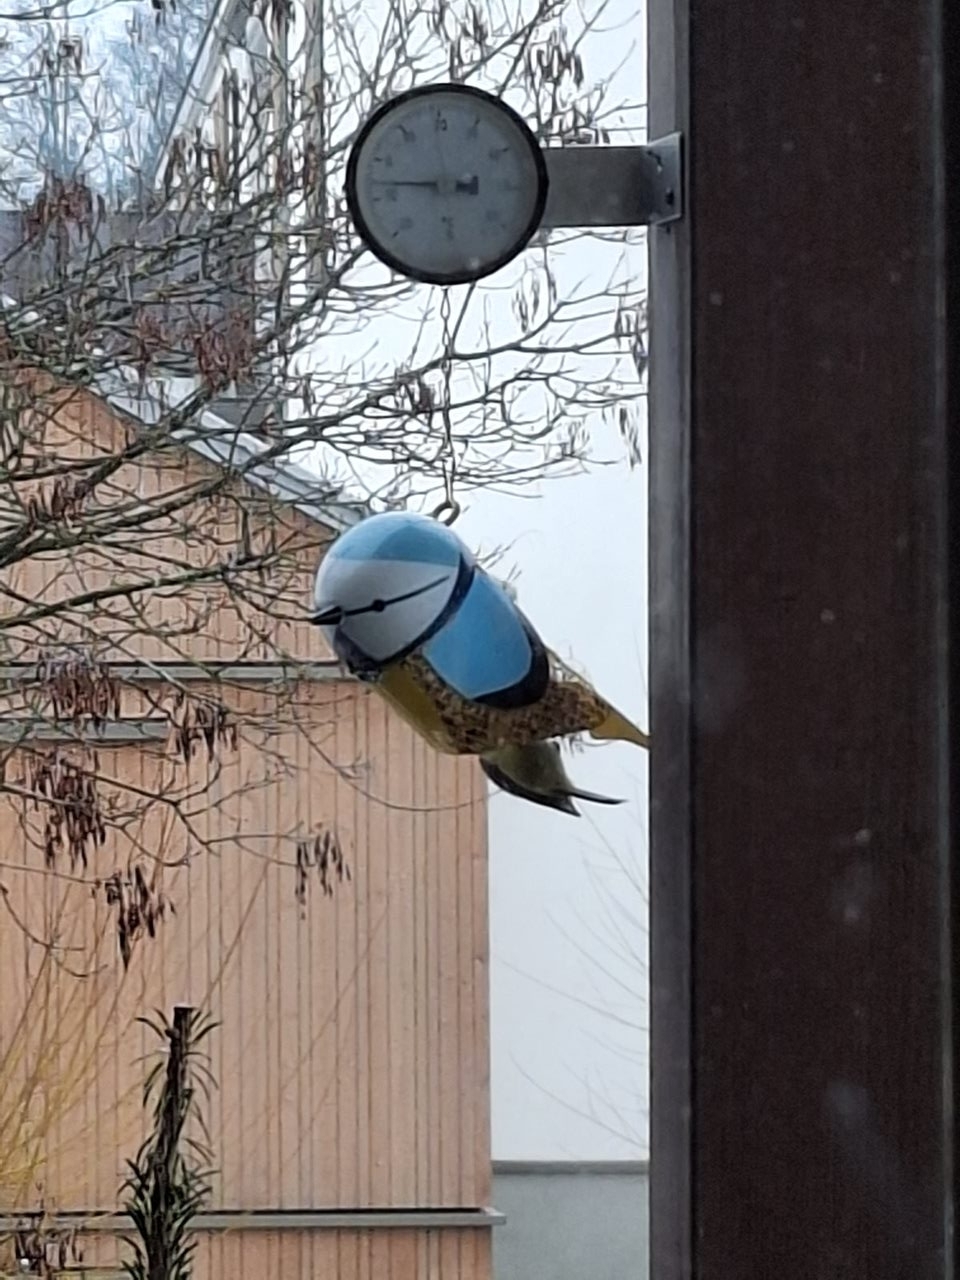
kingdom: Animalia
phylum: Chordata
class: Aves
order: Passeriformes
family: Paridae
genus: Cyanistes
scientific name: Cyanistes caeruleus
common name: Eurasian blue tit
